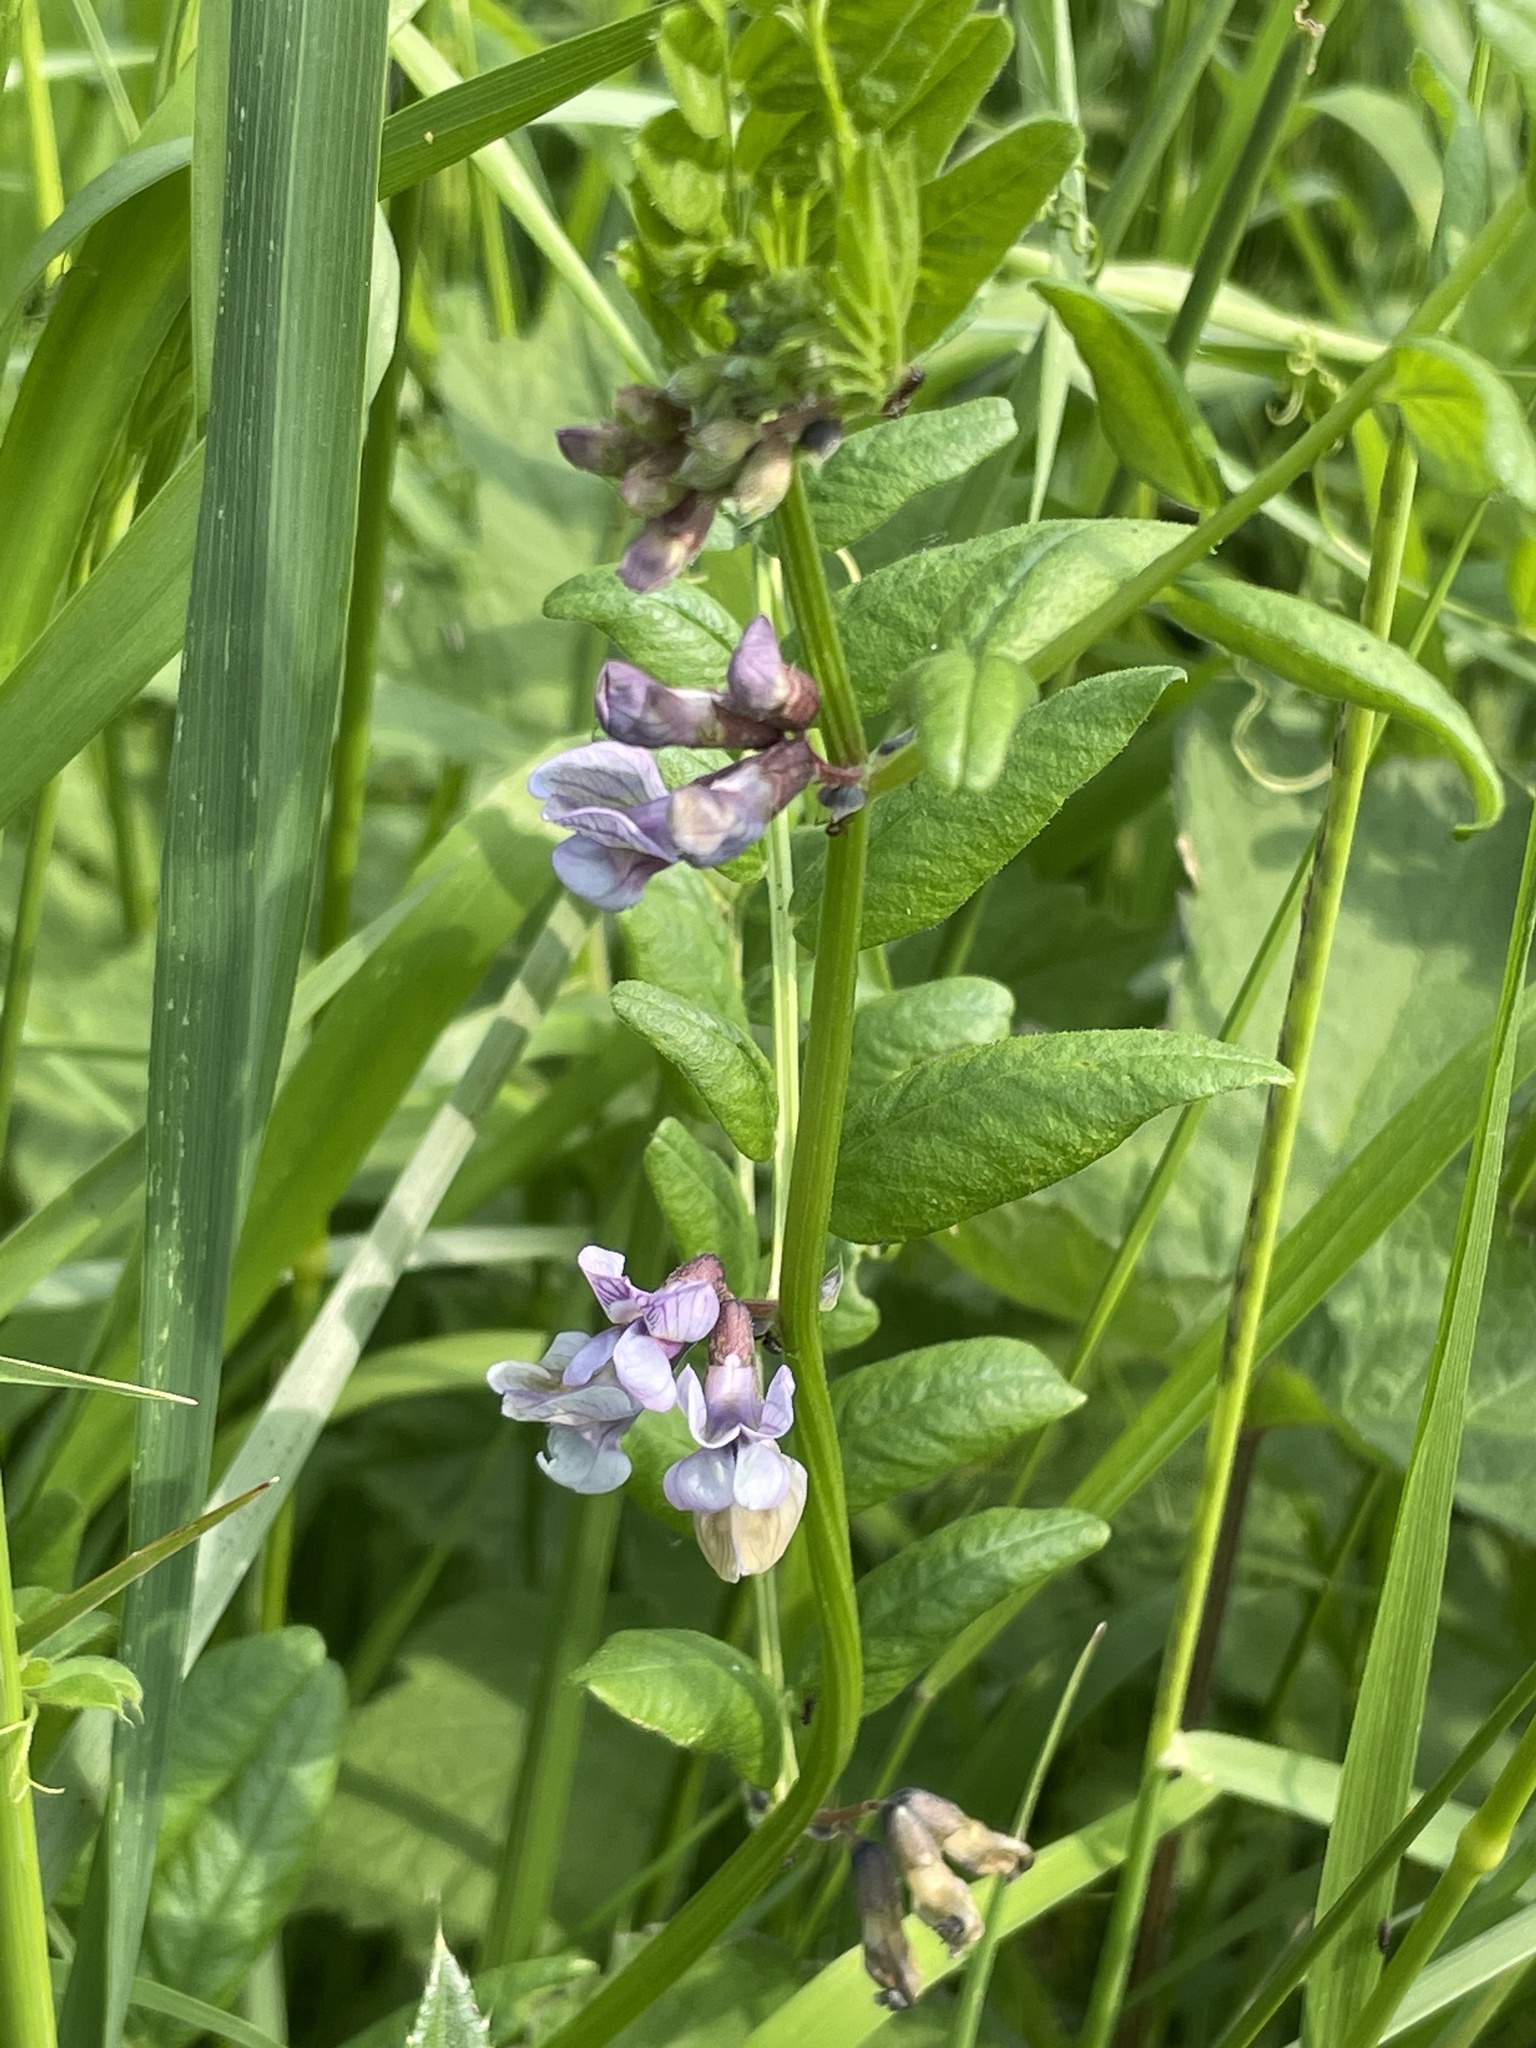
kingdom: Plantae
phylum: Tracheophyta
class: Magnoliopsida
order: Fabales
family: Fabaceae
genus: Vicia
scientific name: Vicia sepium
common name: Bush vetch
